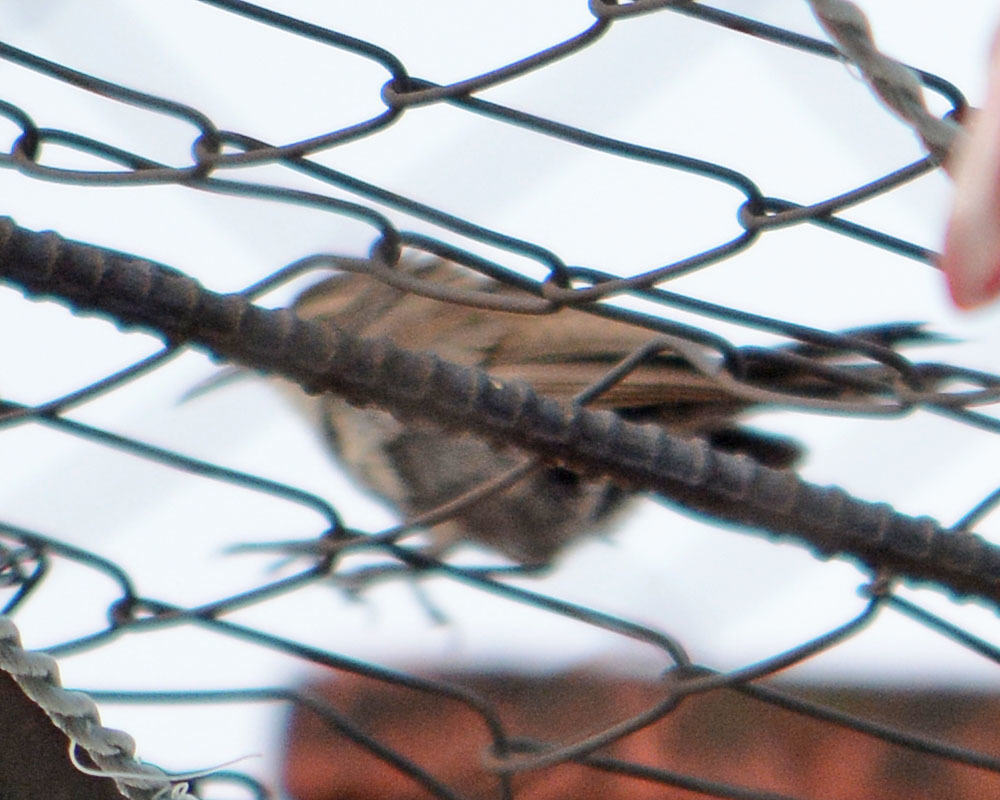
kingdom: Animalia
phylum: Chordata
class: Aves
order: Passeriformes
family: Troglodytidae
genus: Thryomanes
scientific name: Thryomanes bewickii
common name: Bewick's wren
